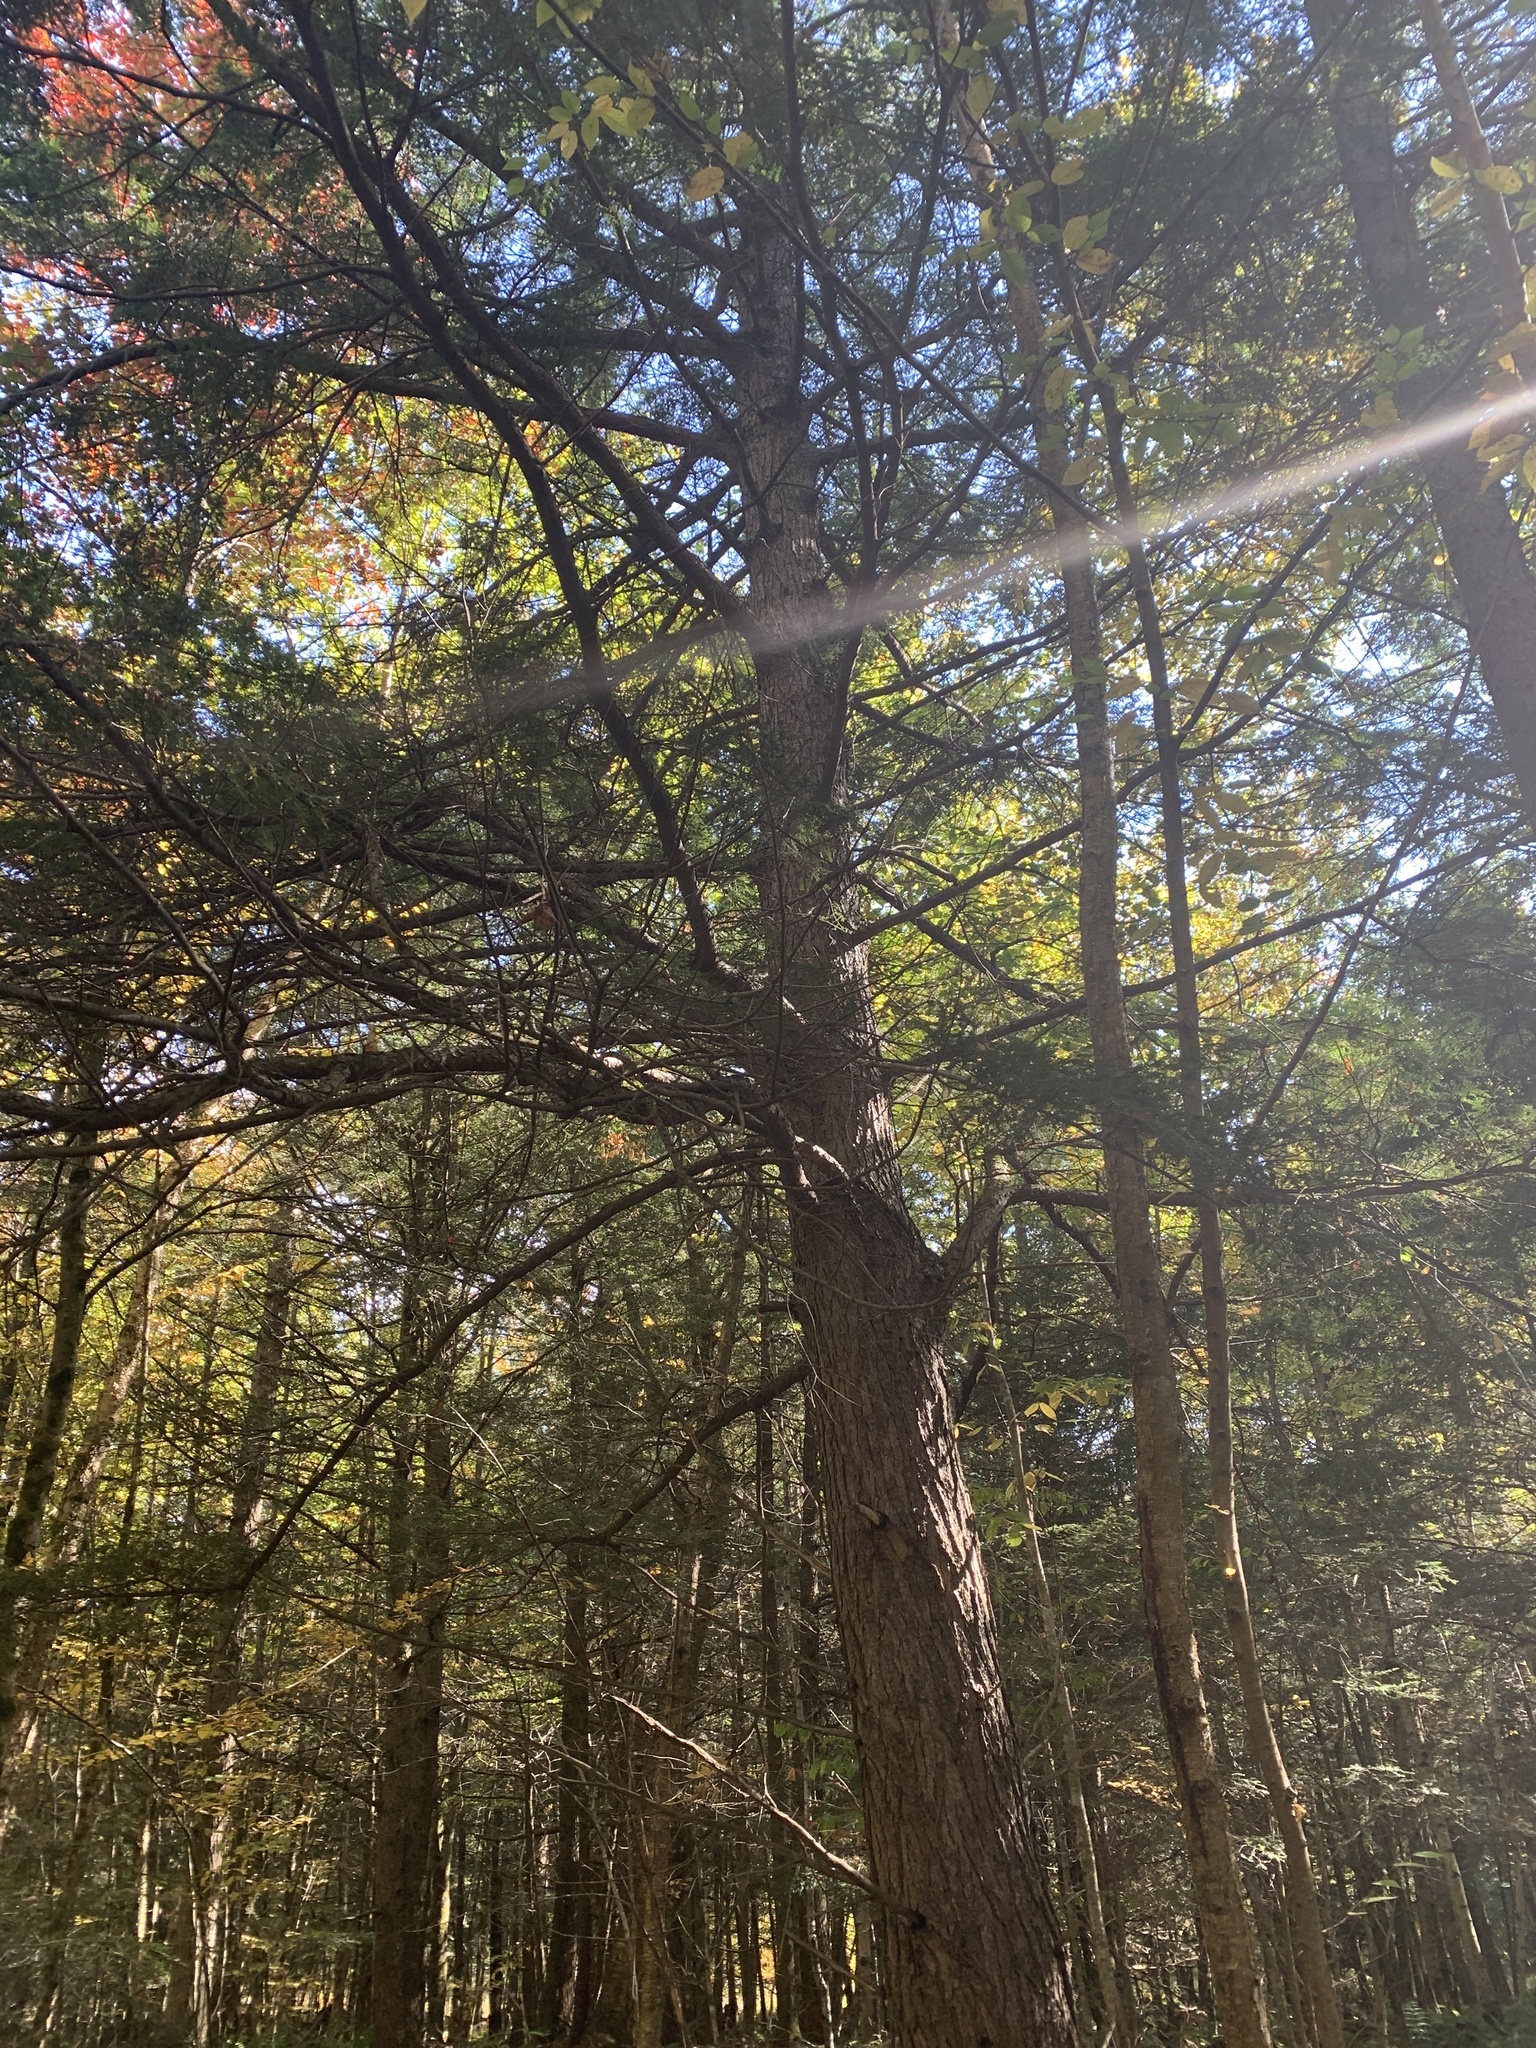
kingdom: Plantae
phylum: Tracheophyta
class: Pinopsida
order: Pinales
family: Pinaceae
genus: Tsuga
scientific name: Tsuga canadensis
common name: Eastern hemlock
